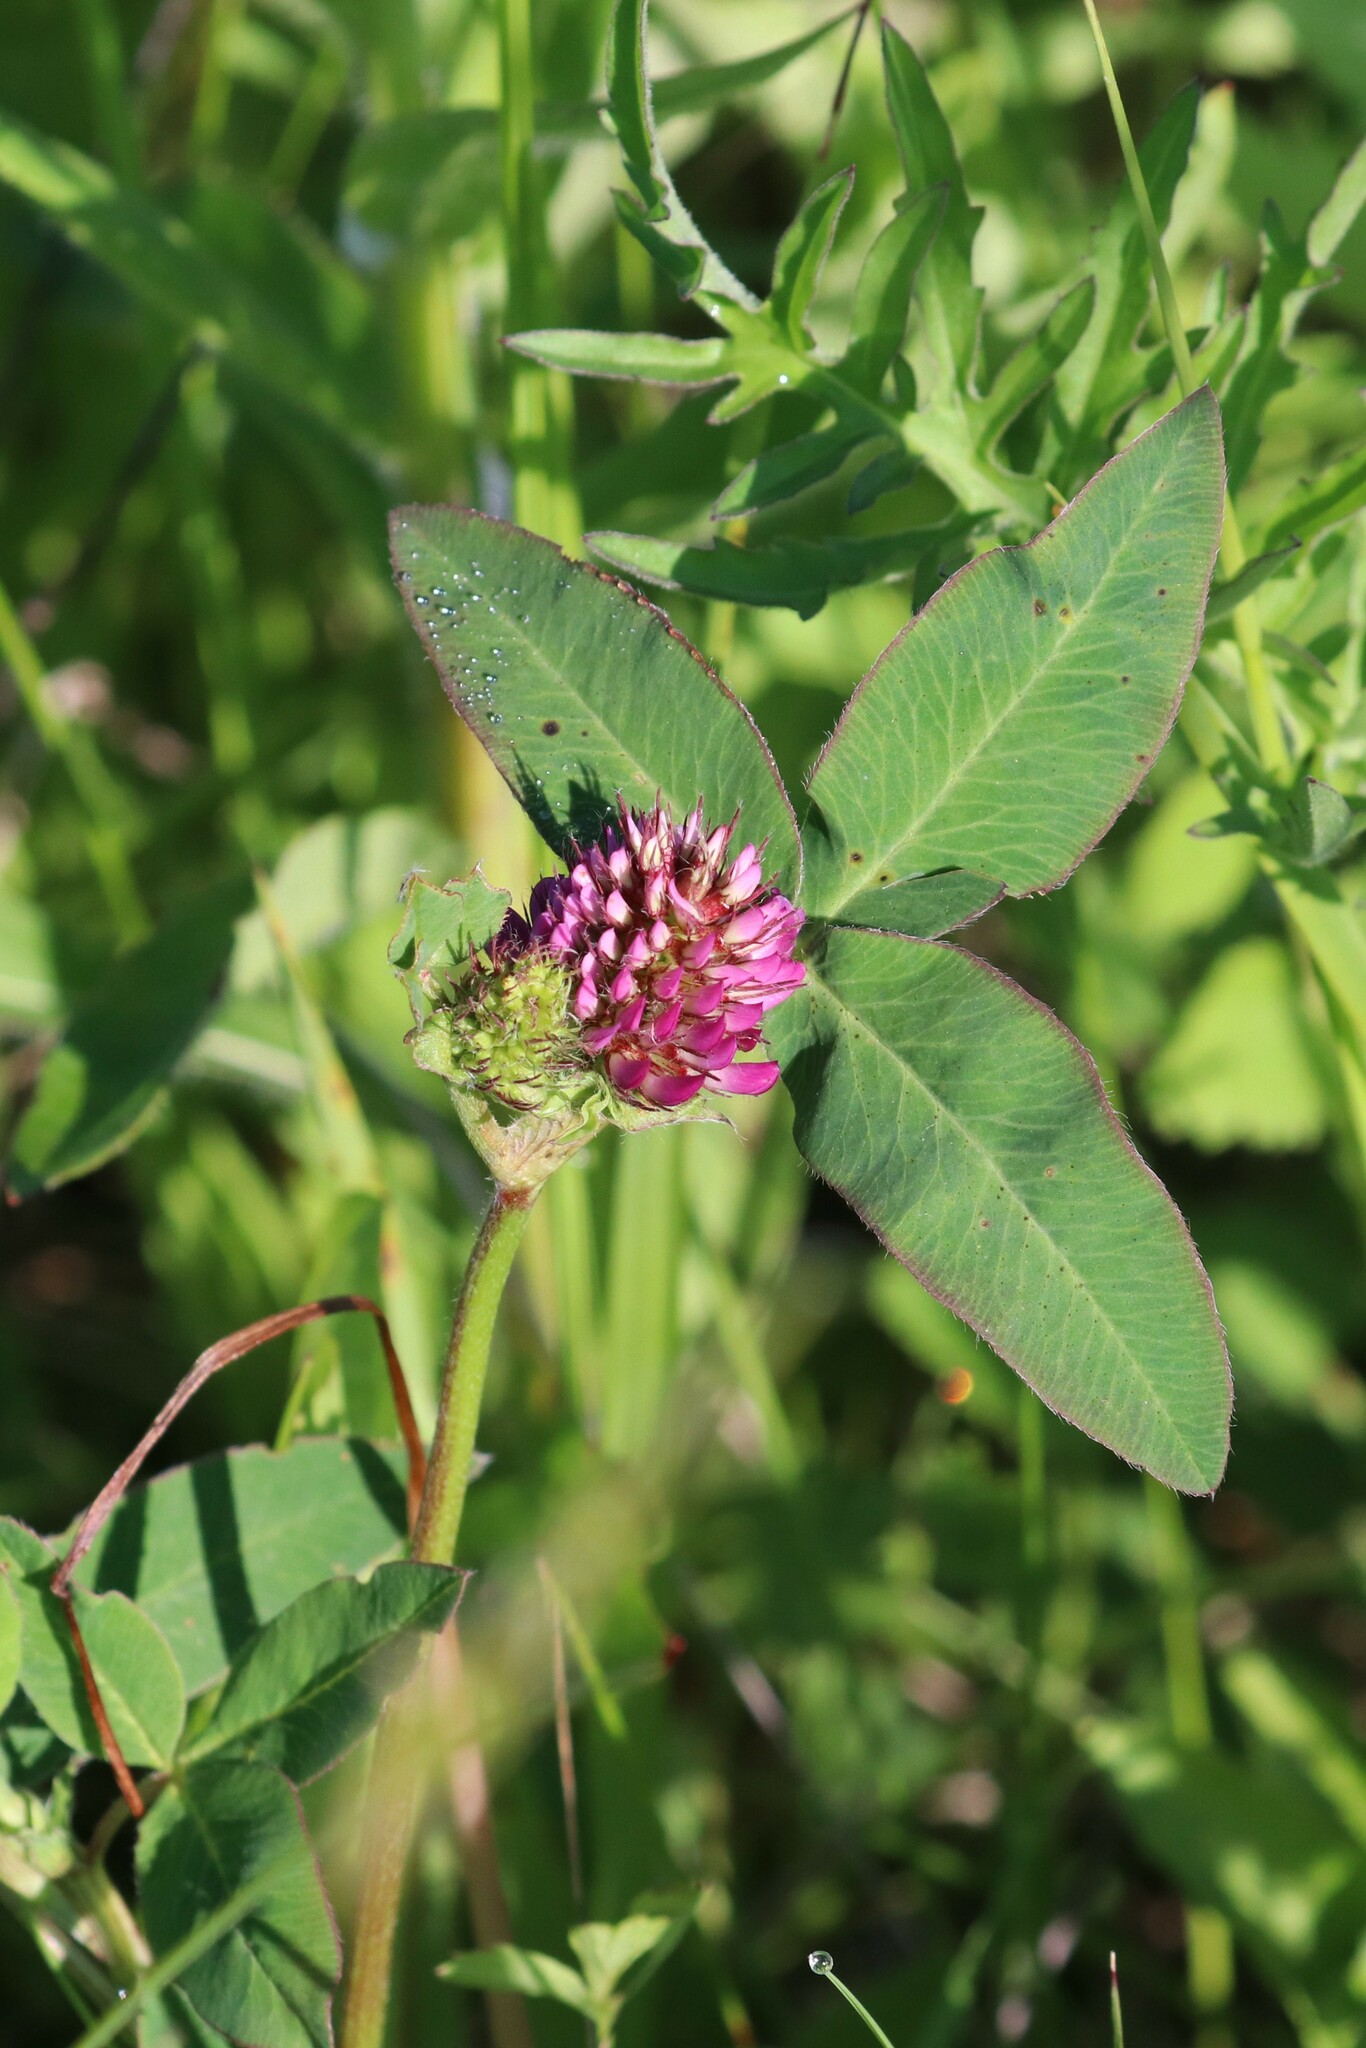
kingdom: Plantae
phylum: Tracheophyta
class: Magnoliopsida
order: Fabales
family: Fabaceae
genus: Trifolium
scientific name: Trifolium medium
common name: Zigzag clover
